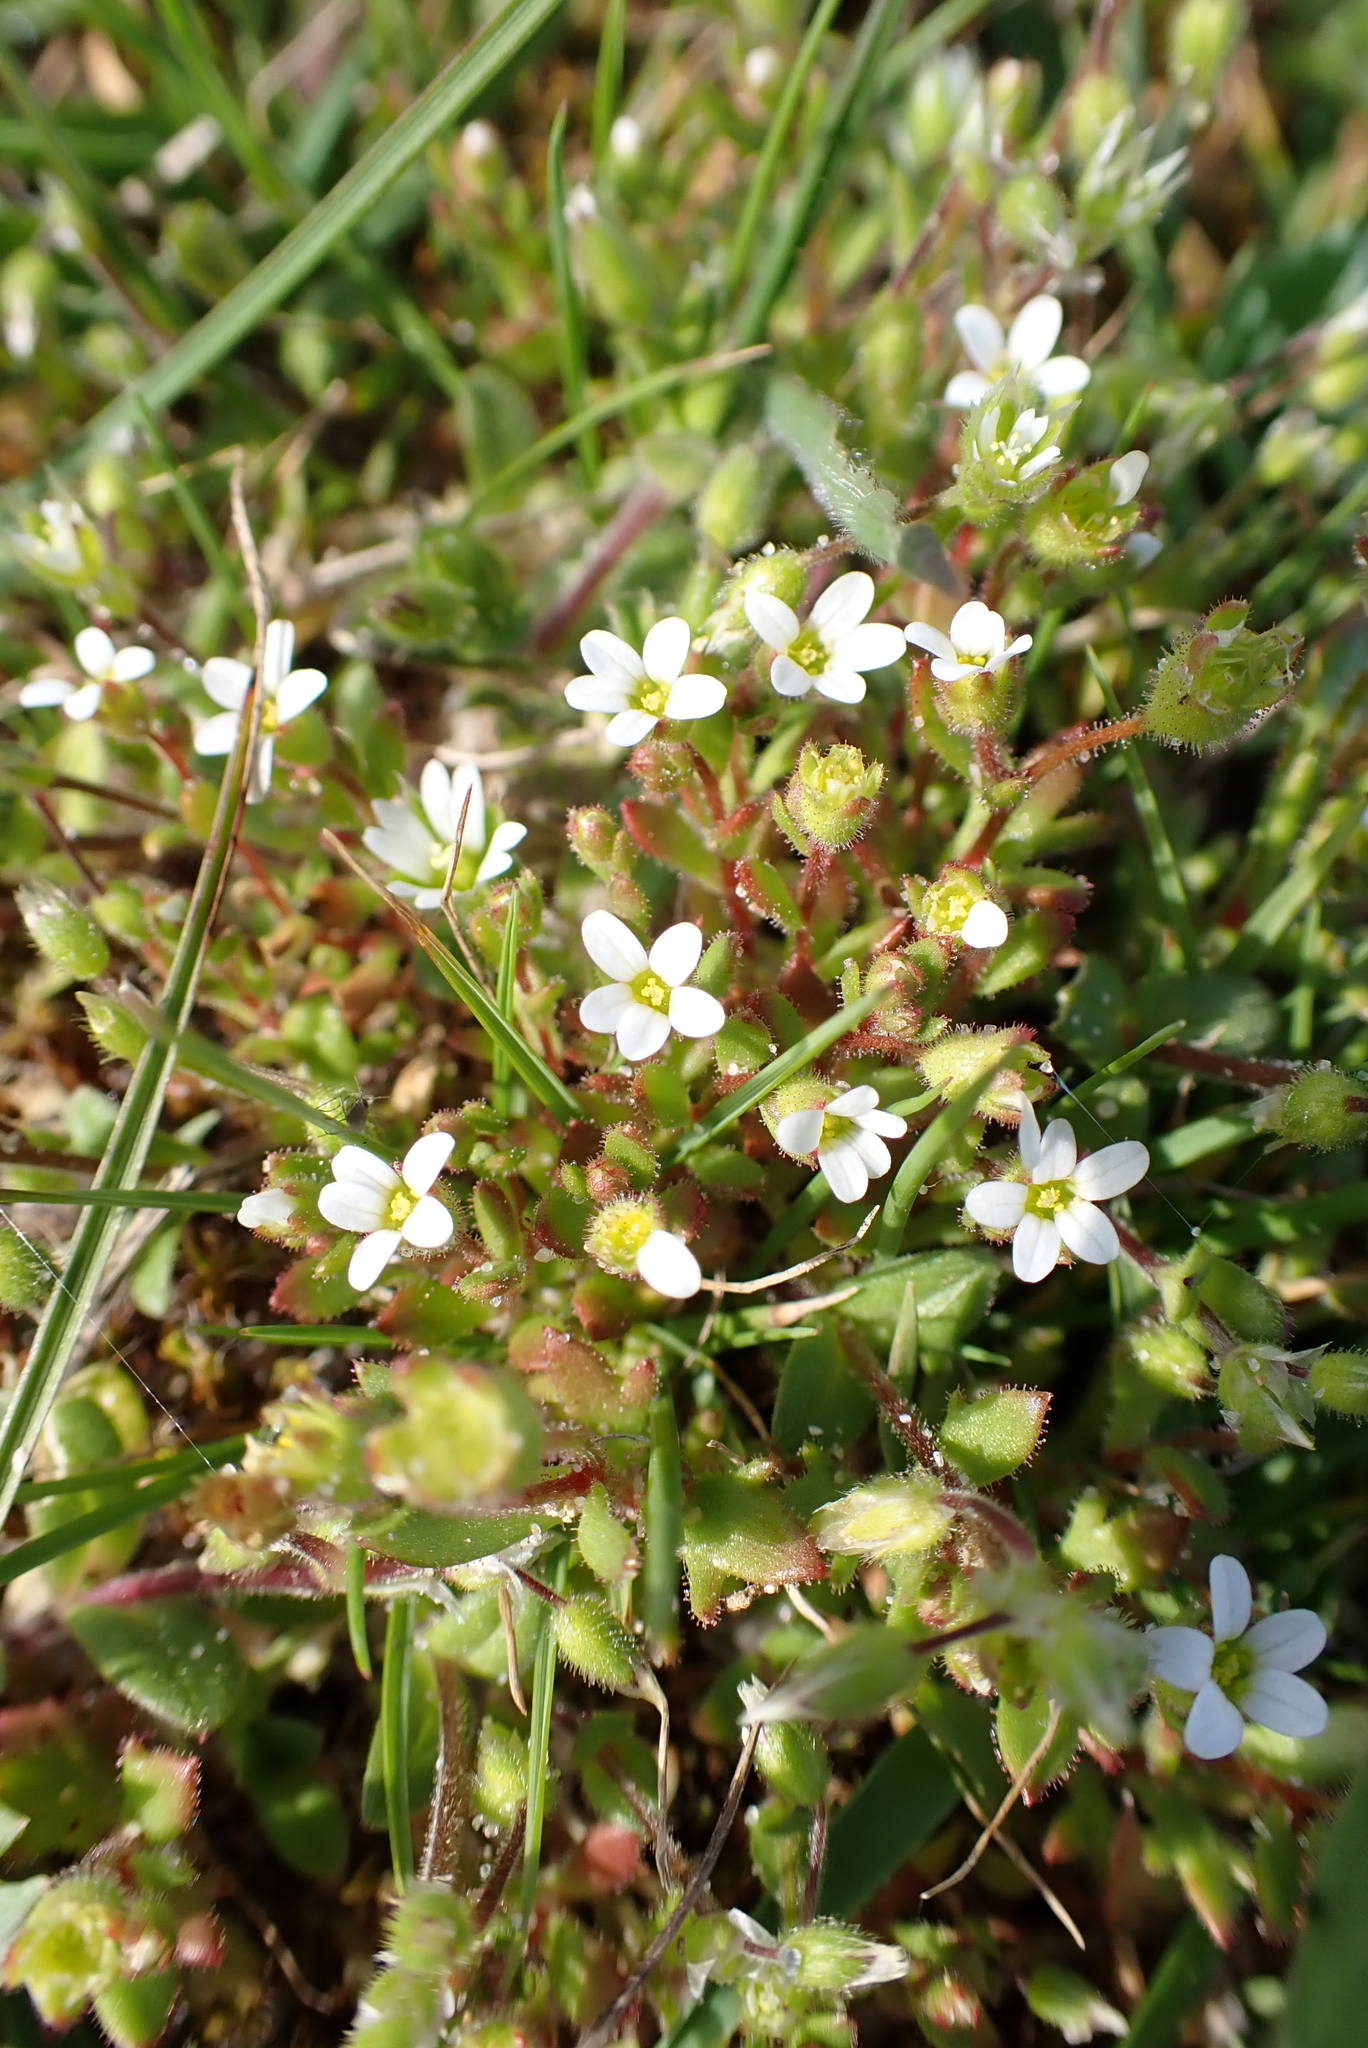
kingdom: Plantae
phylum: Tracheophyta
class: Magnoliopsida
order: Saxifragales
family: Saxifragaceae
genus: Saxifraga
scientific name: Saxifraga tridactylites
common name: Rue-leaved saxifrage
